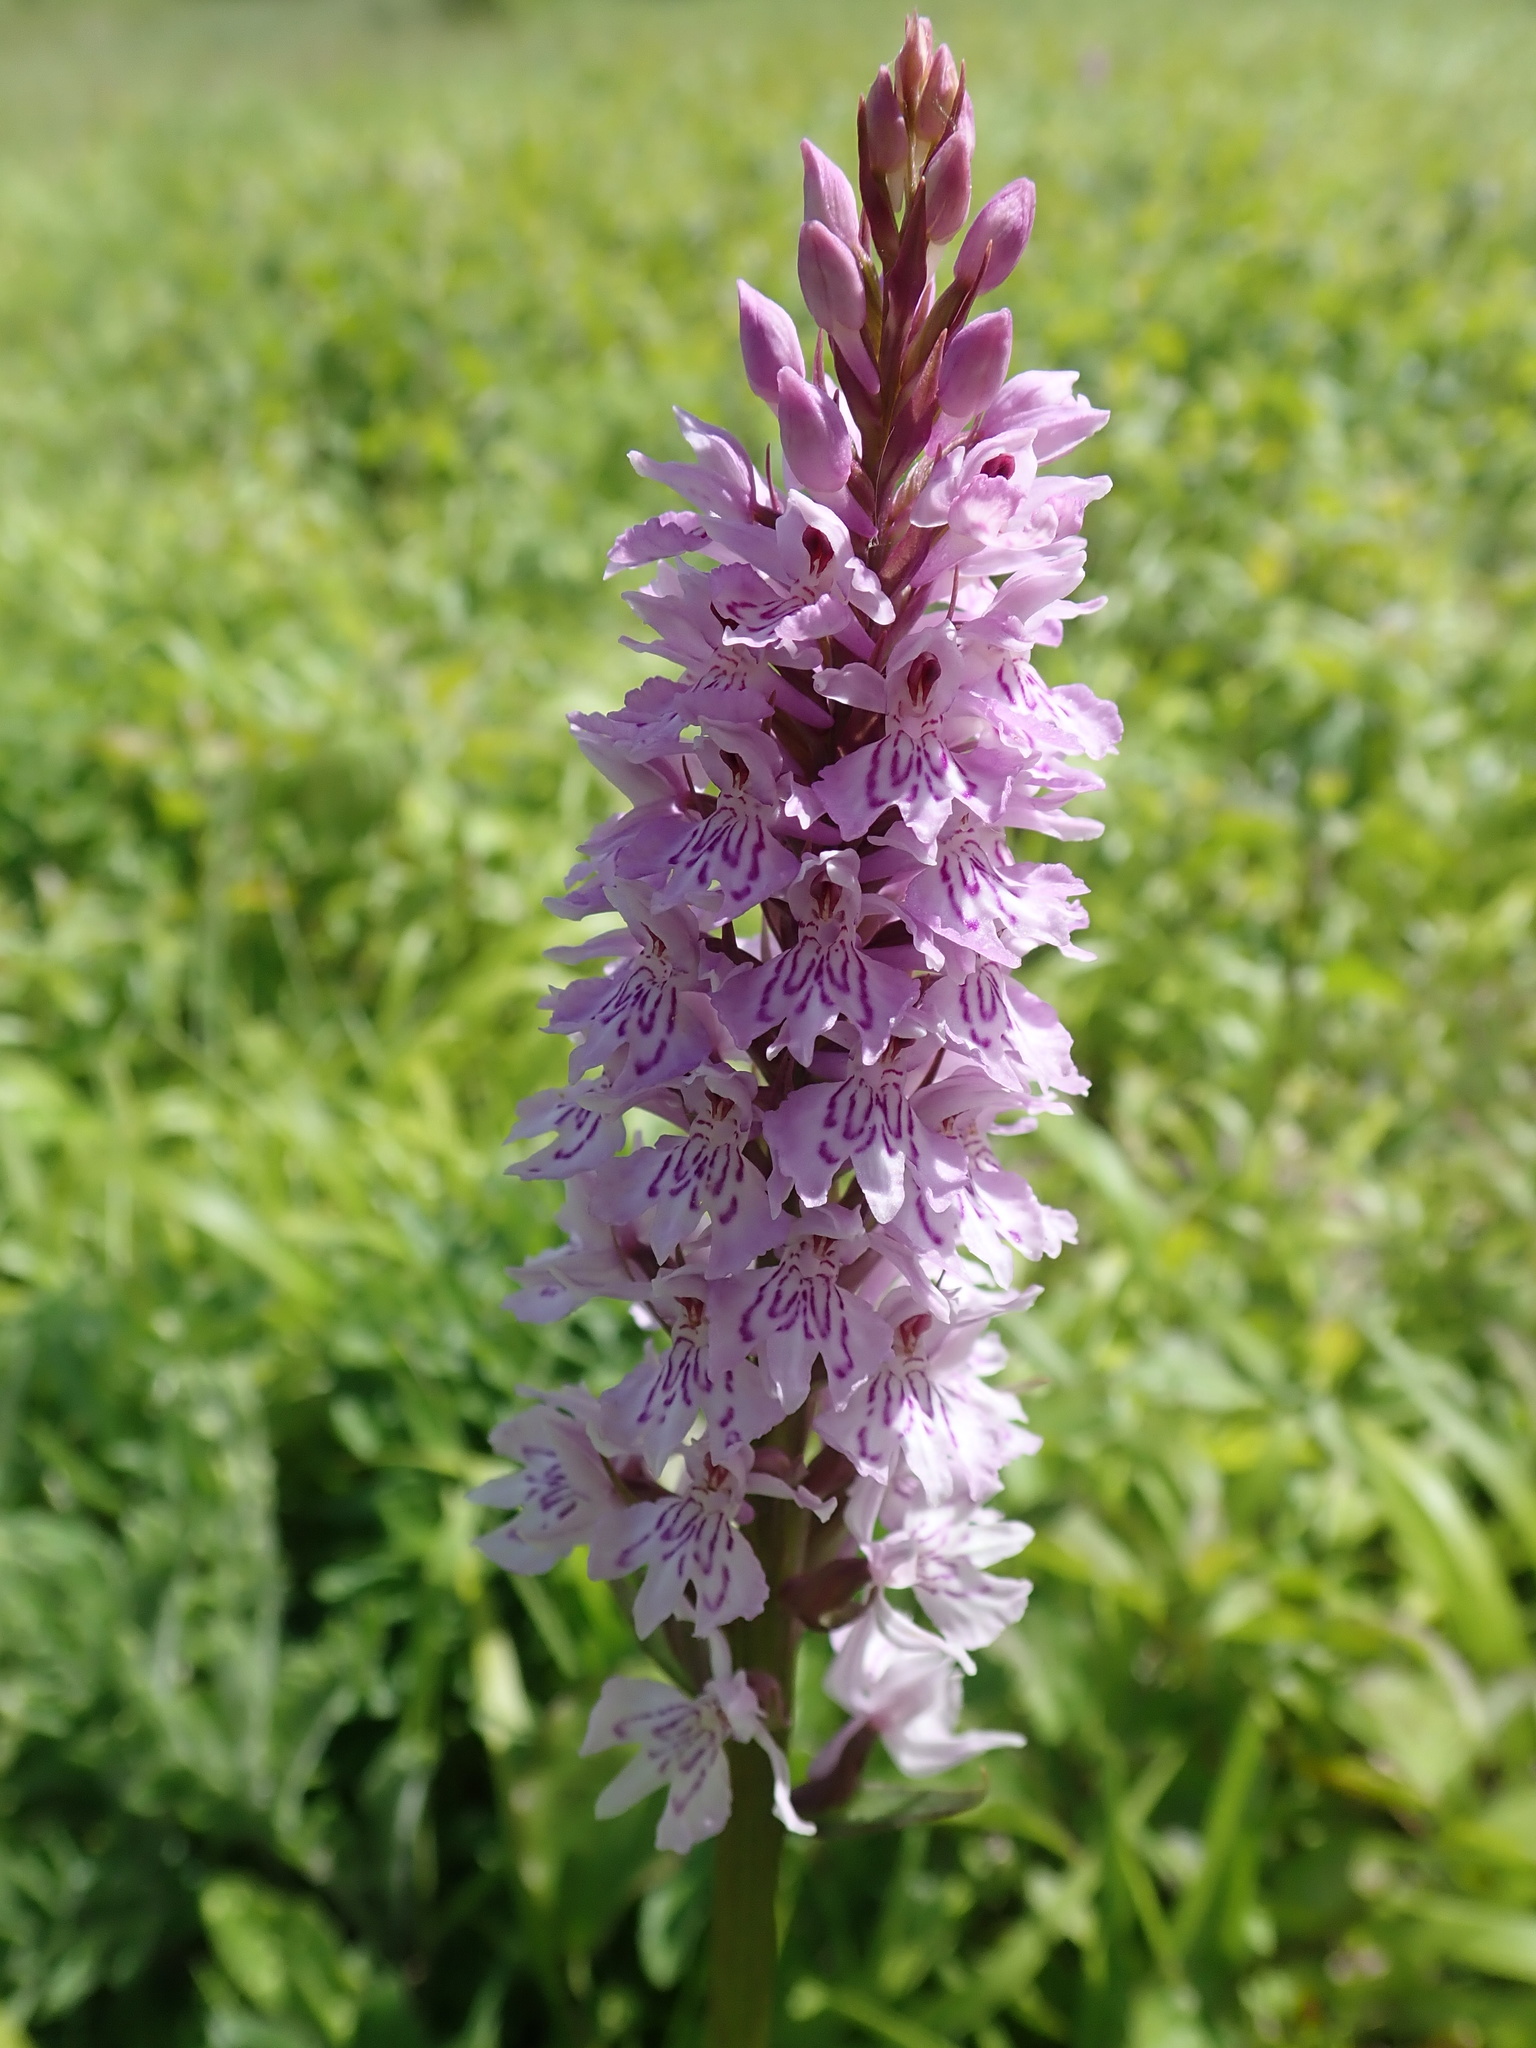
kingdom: Plantae
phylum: Tracheophyta
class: Liliopsida
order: Asparagales
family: Orchidaceae
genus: Dactylorhiza
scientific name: Dactylorhiza maculata
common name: Heath spotted-orchid
